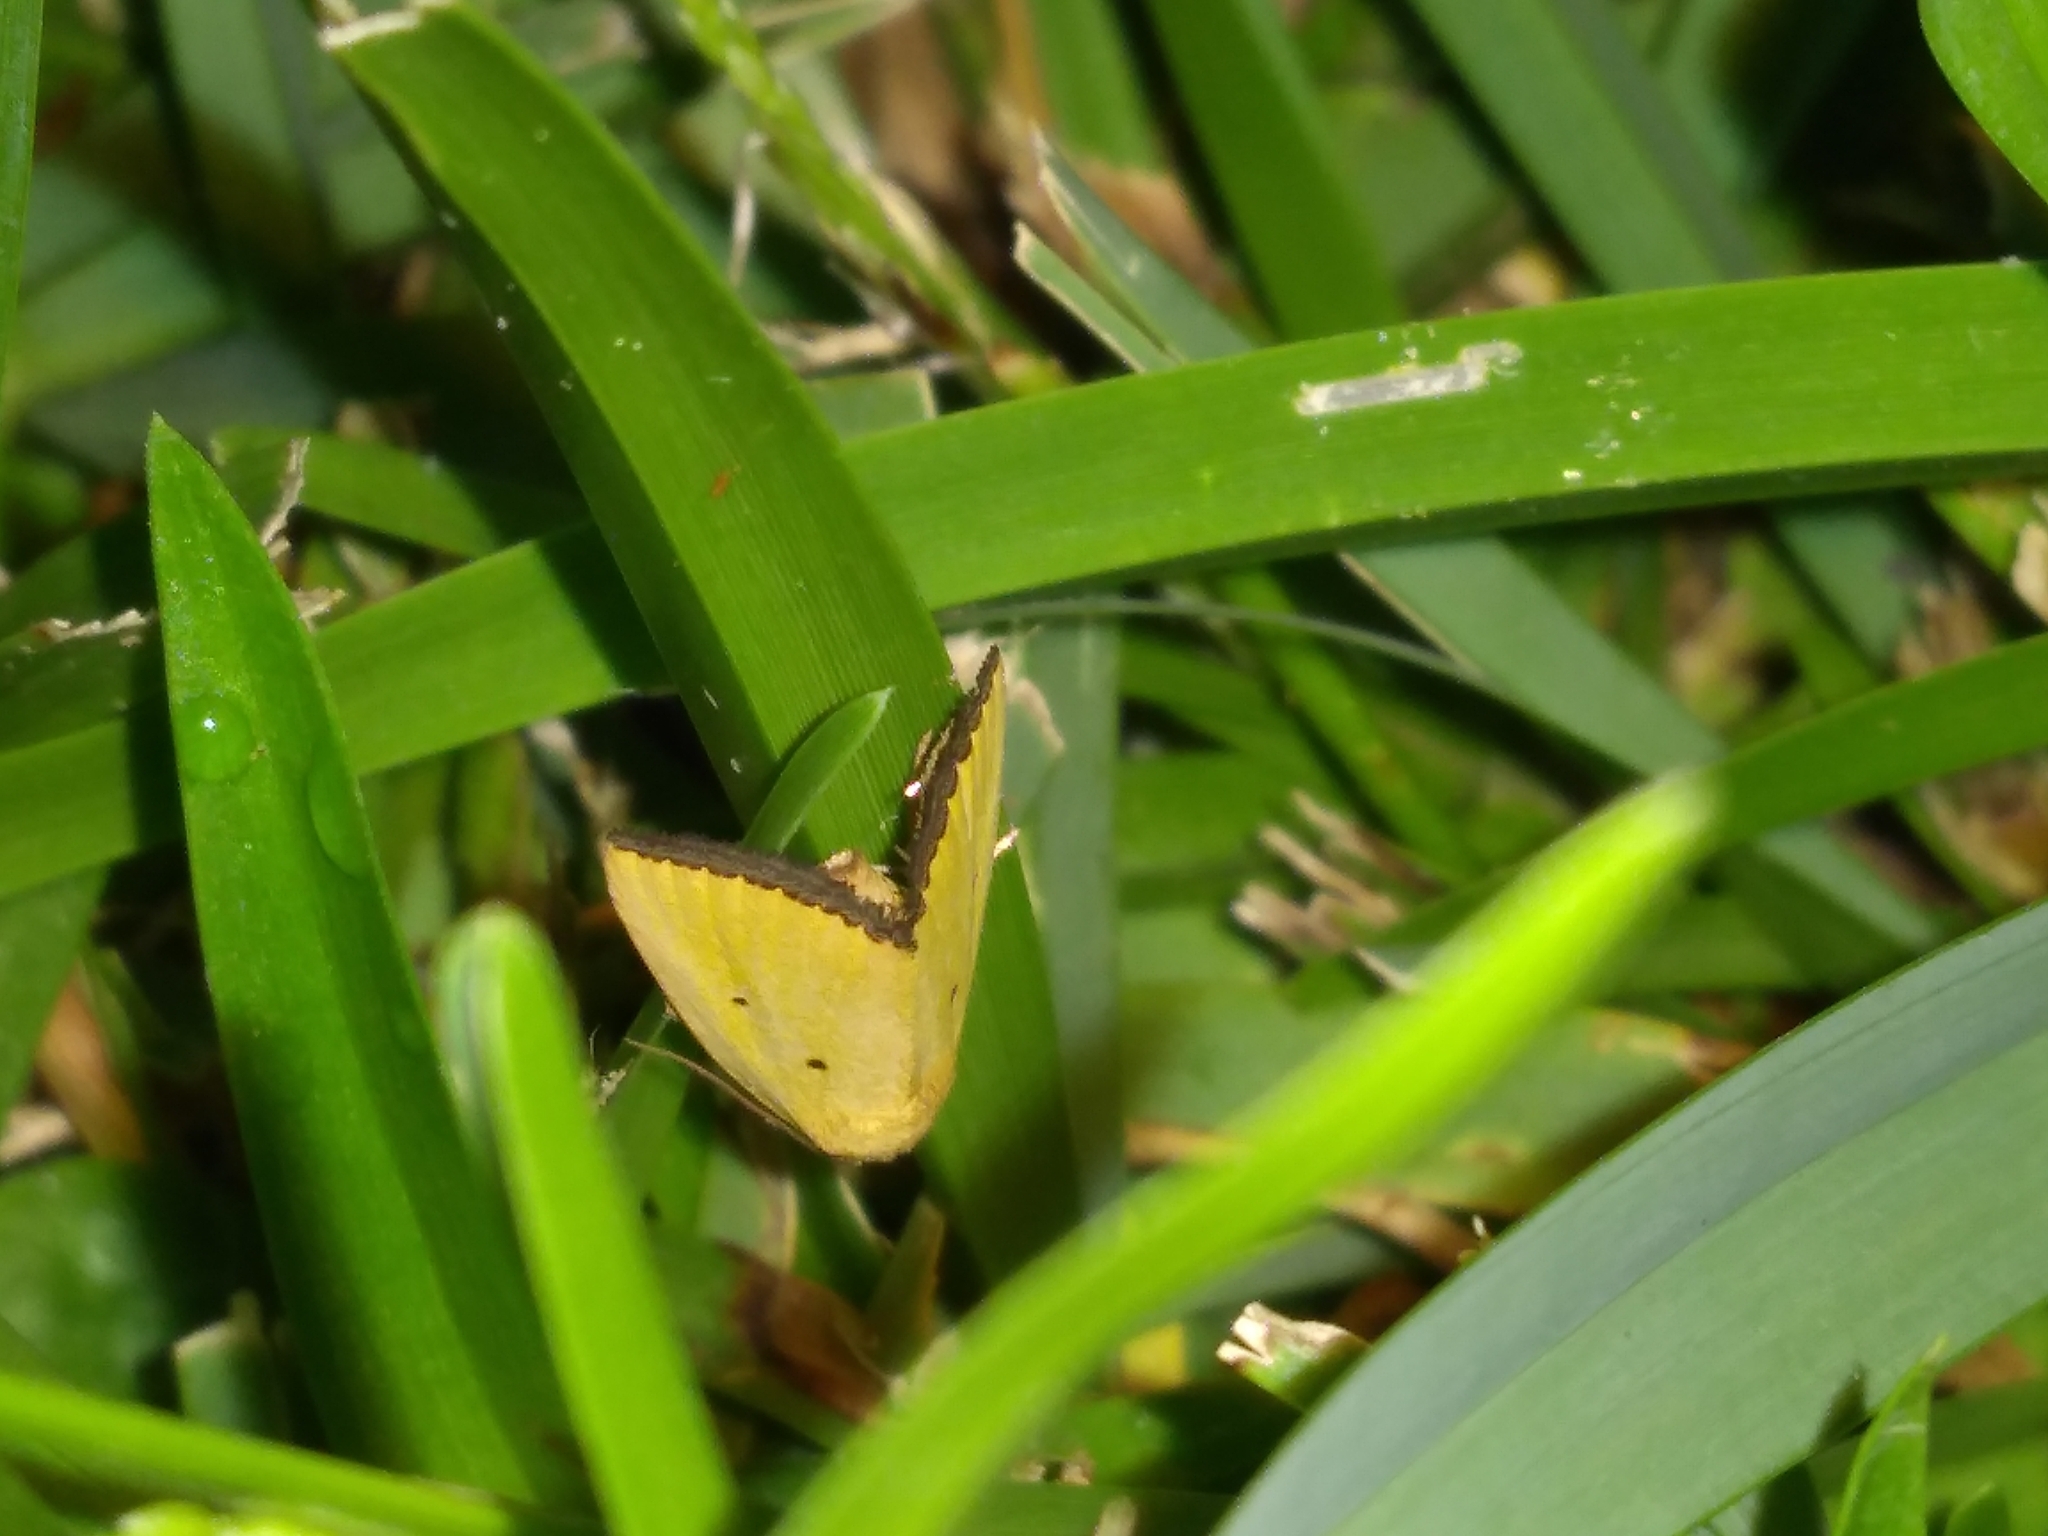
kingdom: Animalia
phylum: Arthropoda
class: Insecta
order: Lepidoptera
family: Noctuidae
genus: Marimatha
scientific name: Marimatha nigrofimbria
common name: Black-bordered lemon moth
